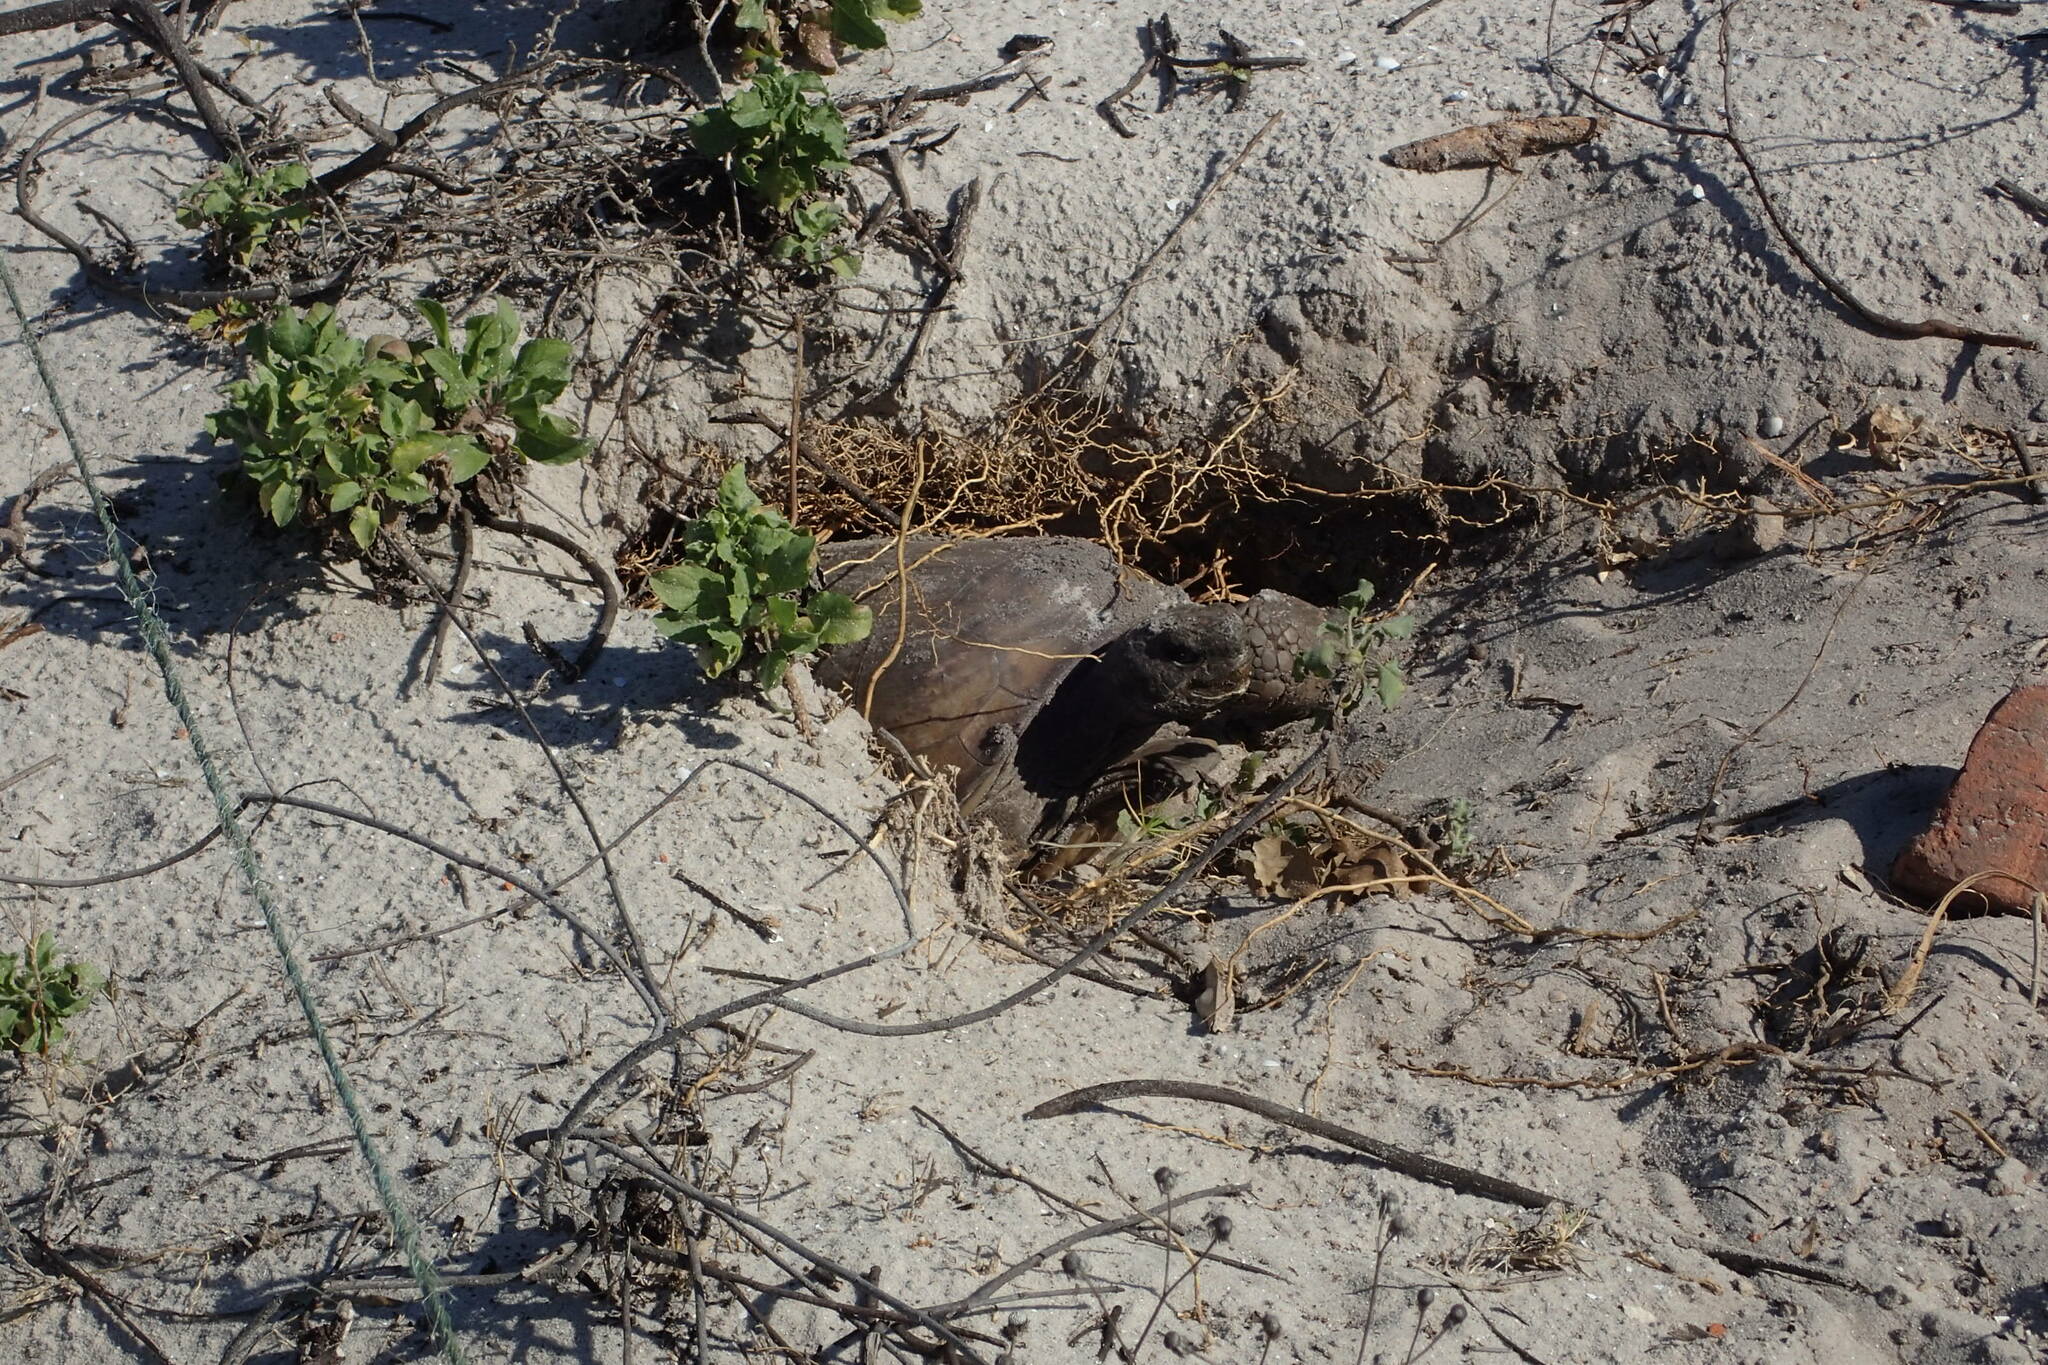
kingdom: Animalia
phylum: Chordata
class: Testudines
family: Testudinidae
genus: Gopherus
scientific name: Gopherus polyphemus
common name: Florida gopher tortoise
